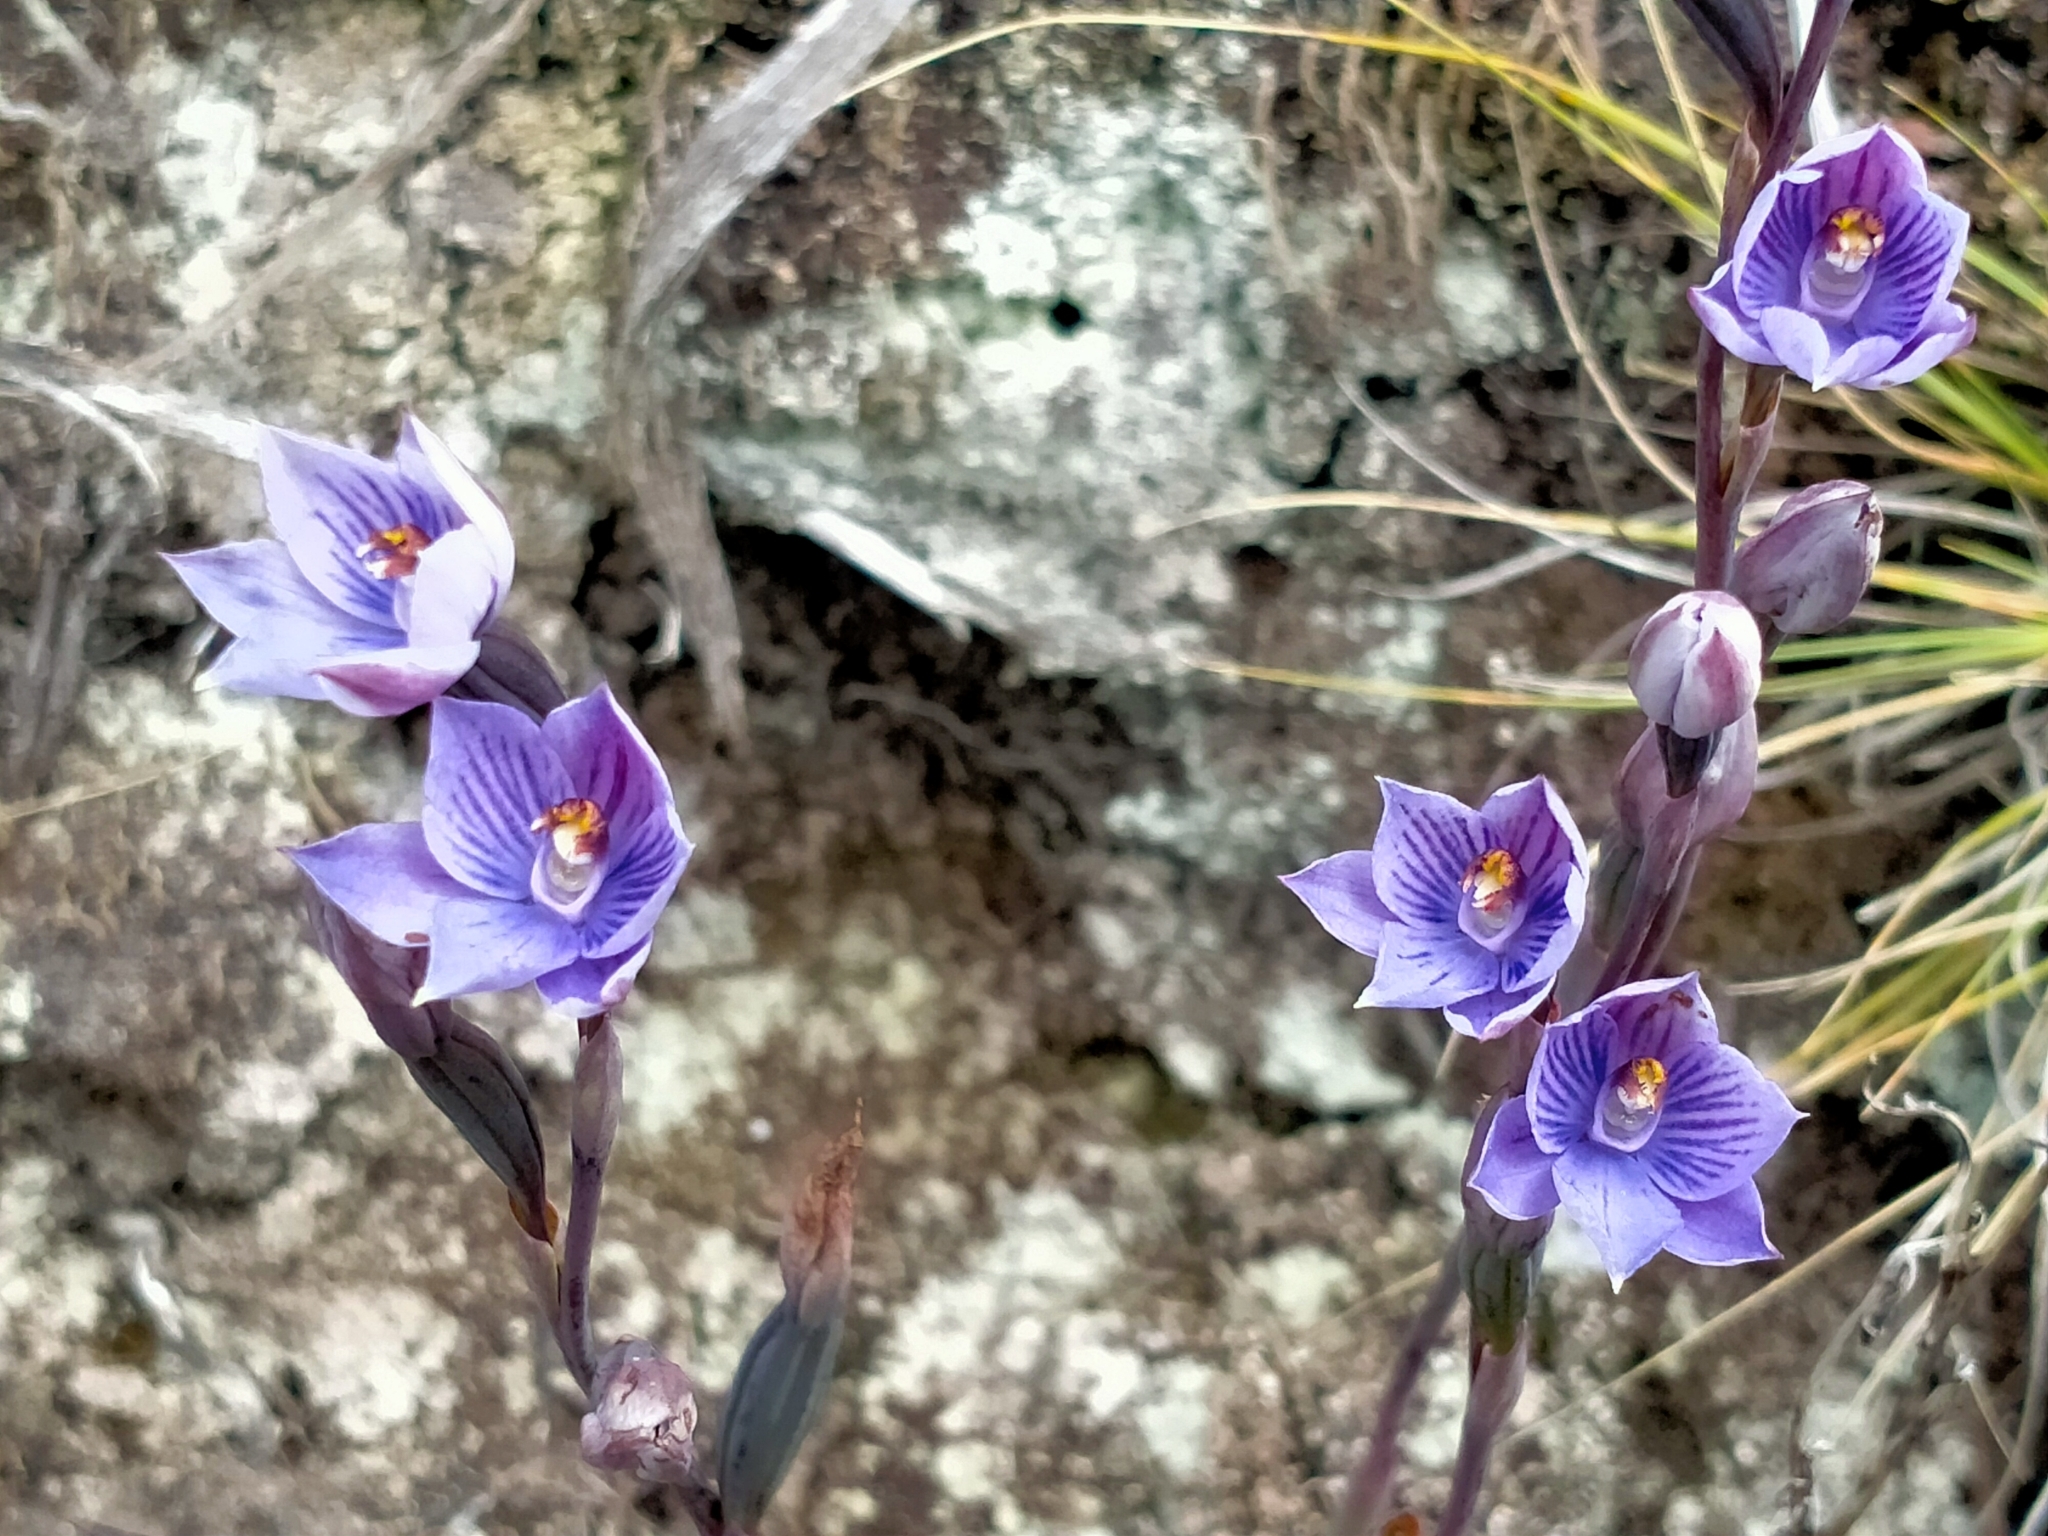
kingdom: Plantae
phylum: Tracheophyta
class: Liliopsida
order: Asparagales
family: Orchidaceae
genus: Thelymitra
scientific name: Thelymitra pulchella
